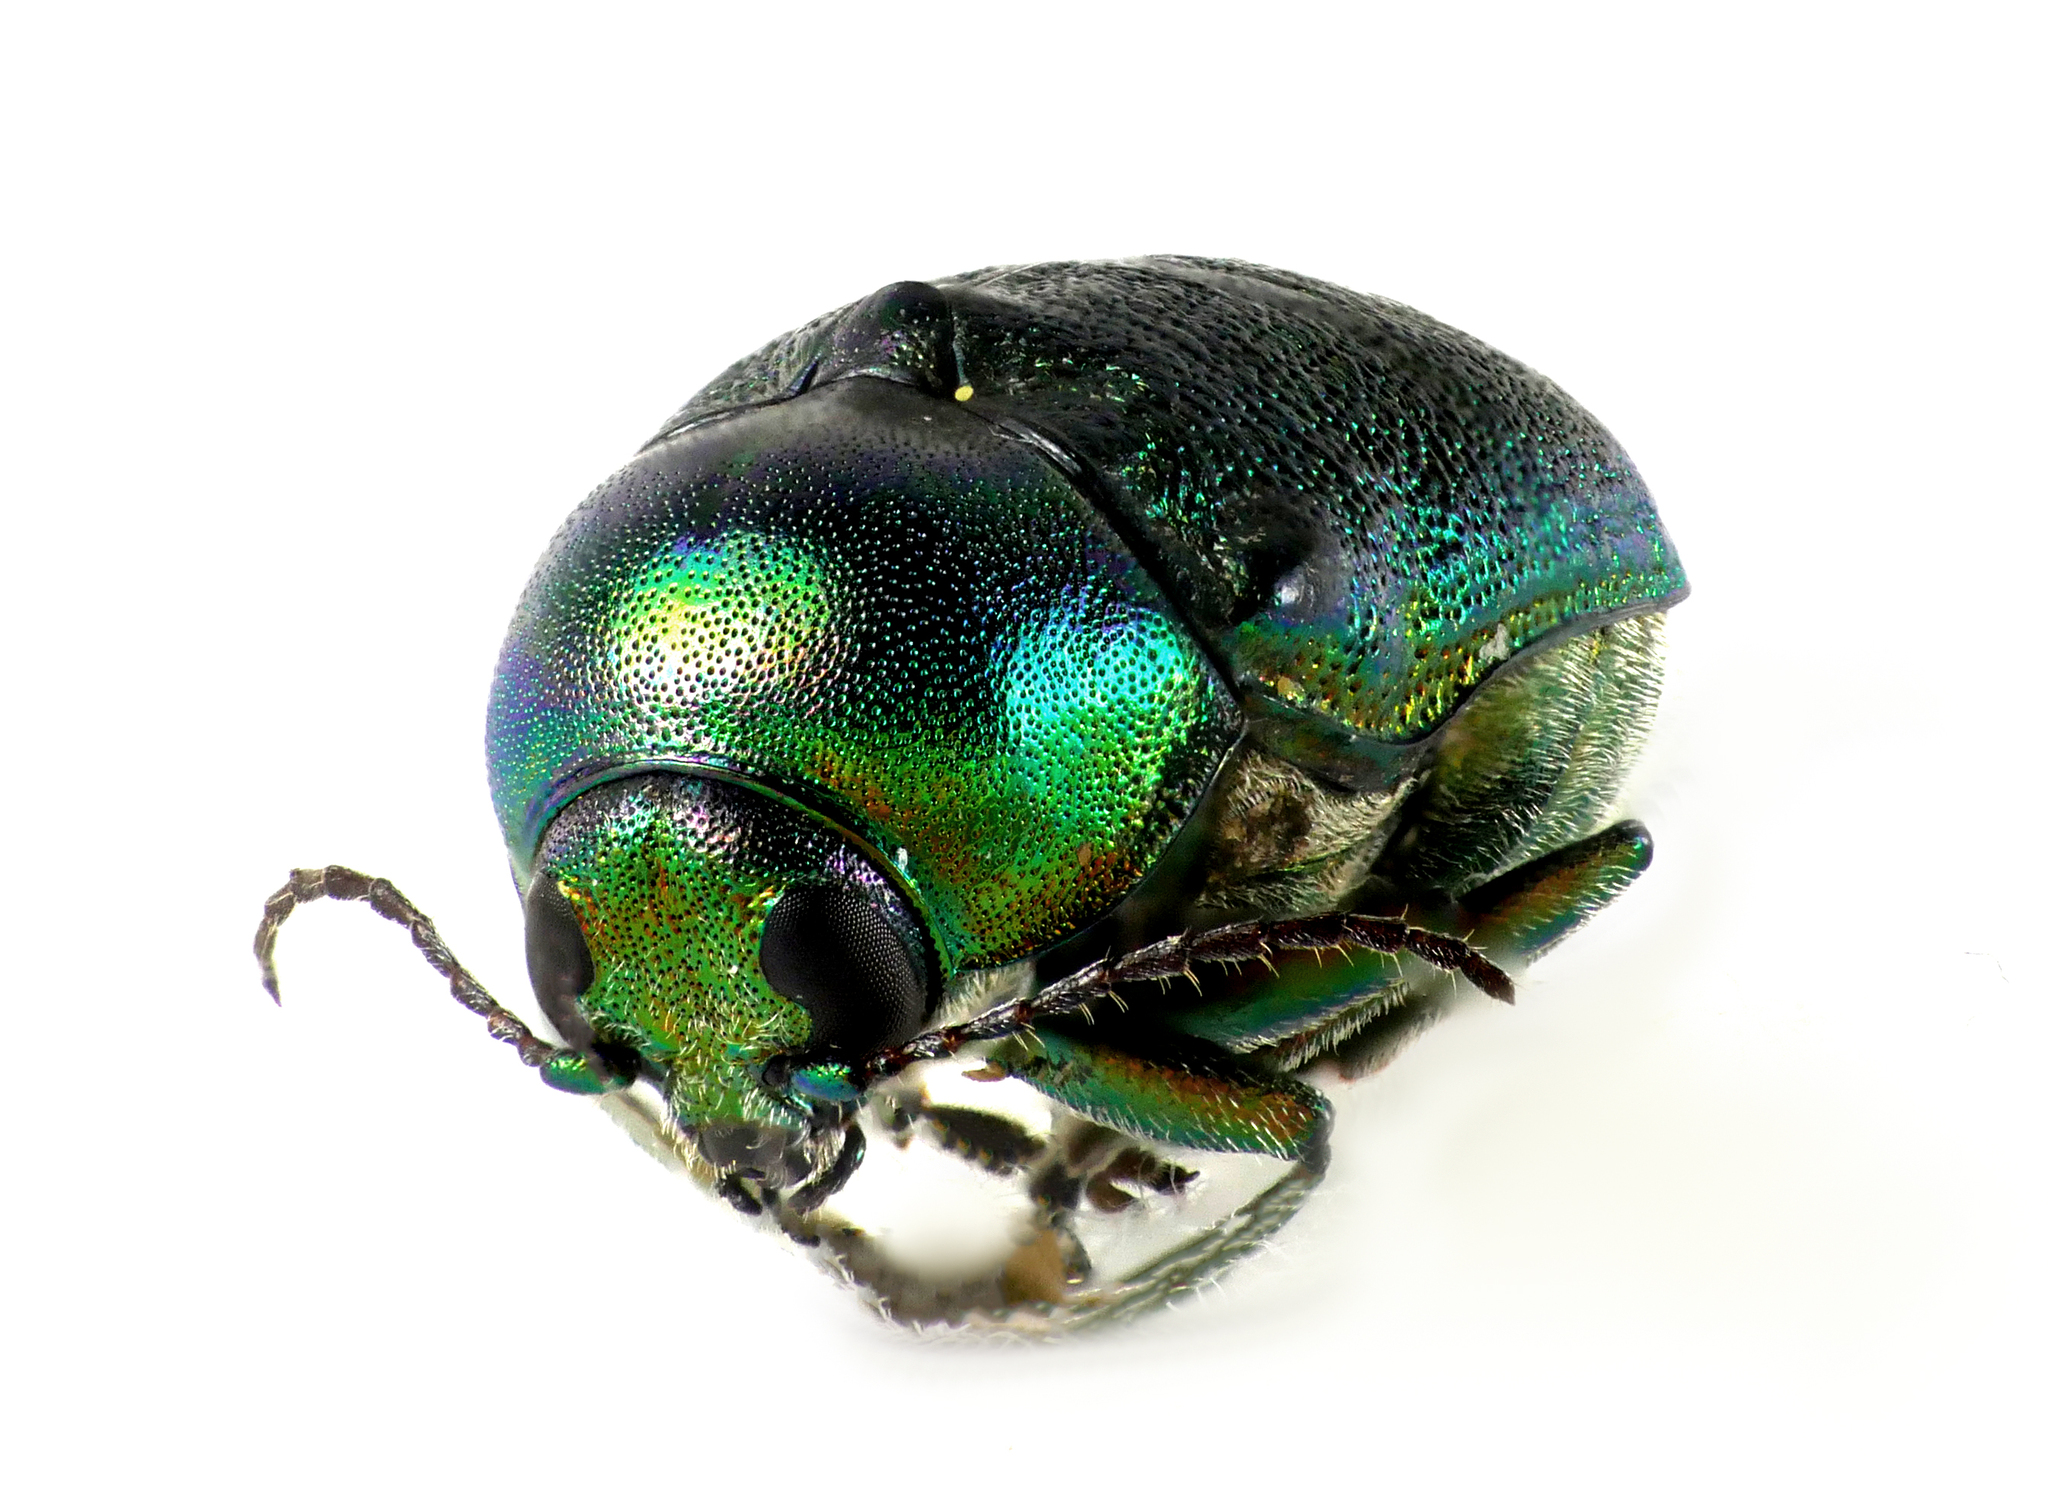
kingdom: Animalia
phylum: Arthropoda
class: Insecta
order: Coleoptera
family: Chrysomelidae
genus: Cryptocephalus
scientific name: Cryptocephalus sericeus
